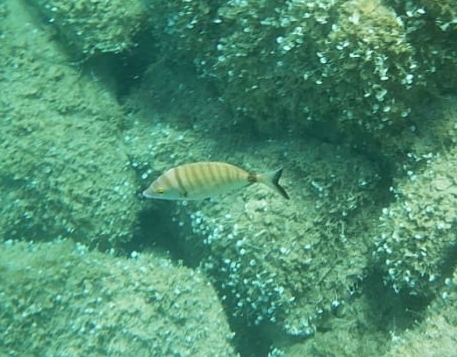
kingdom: Animalia
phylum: Chordata
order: Perciformes
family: Sparidae
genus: Diplodus
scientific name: Diplodus puntazzo
